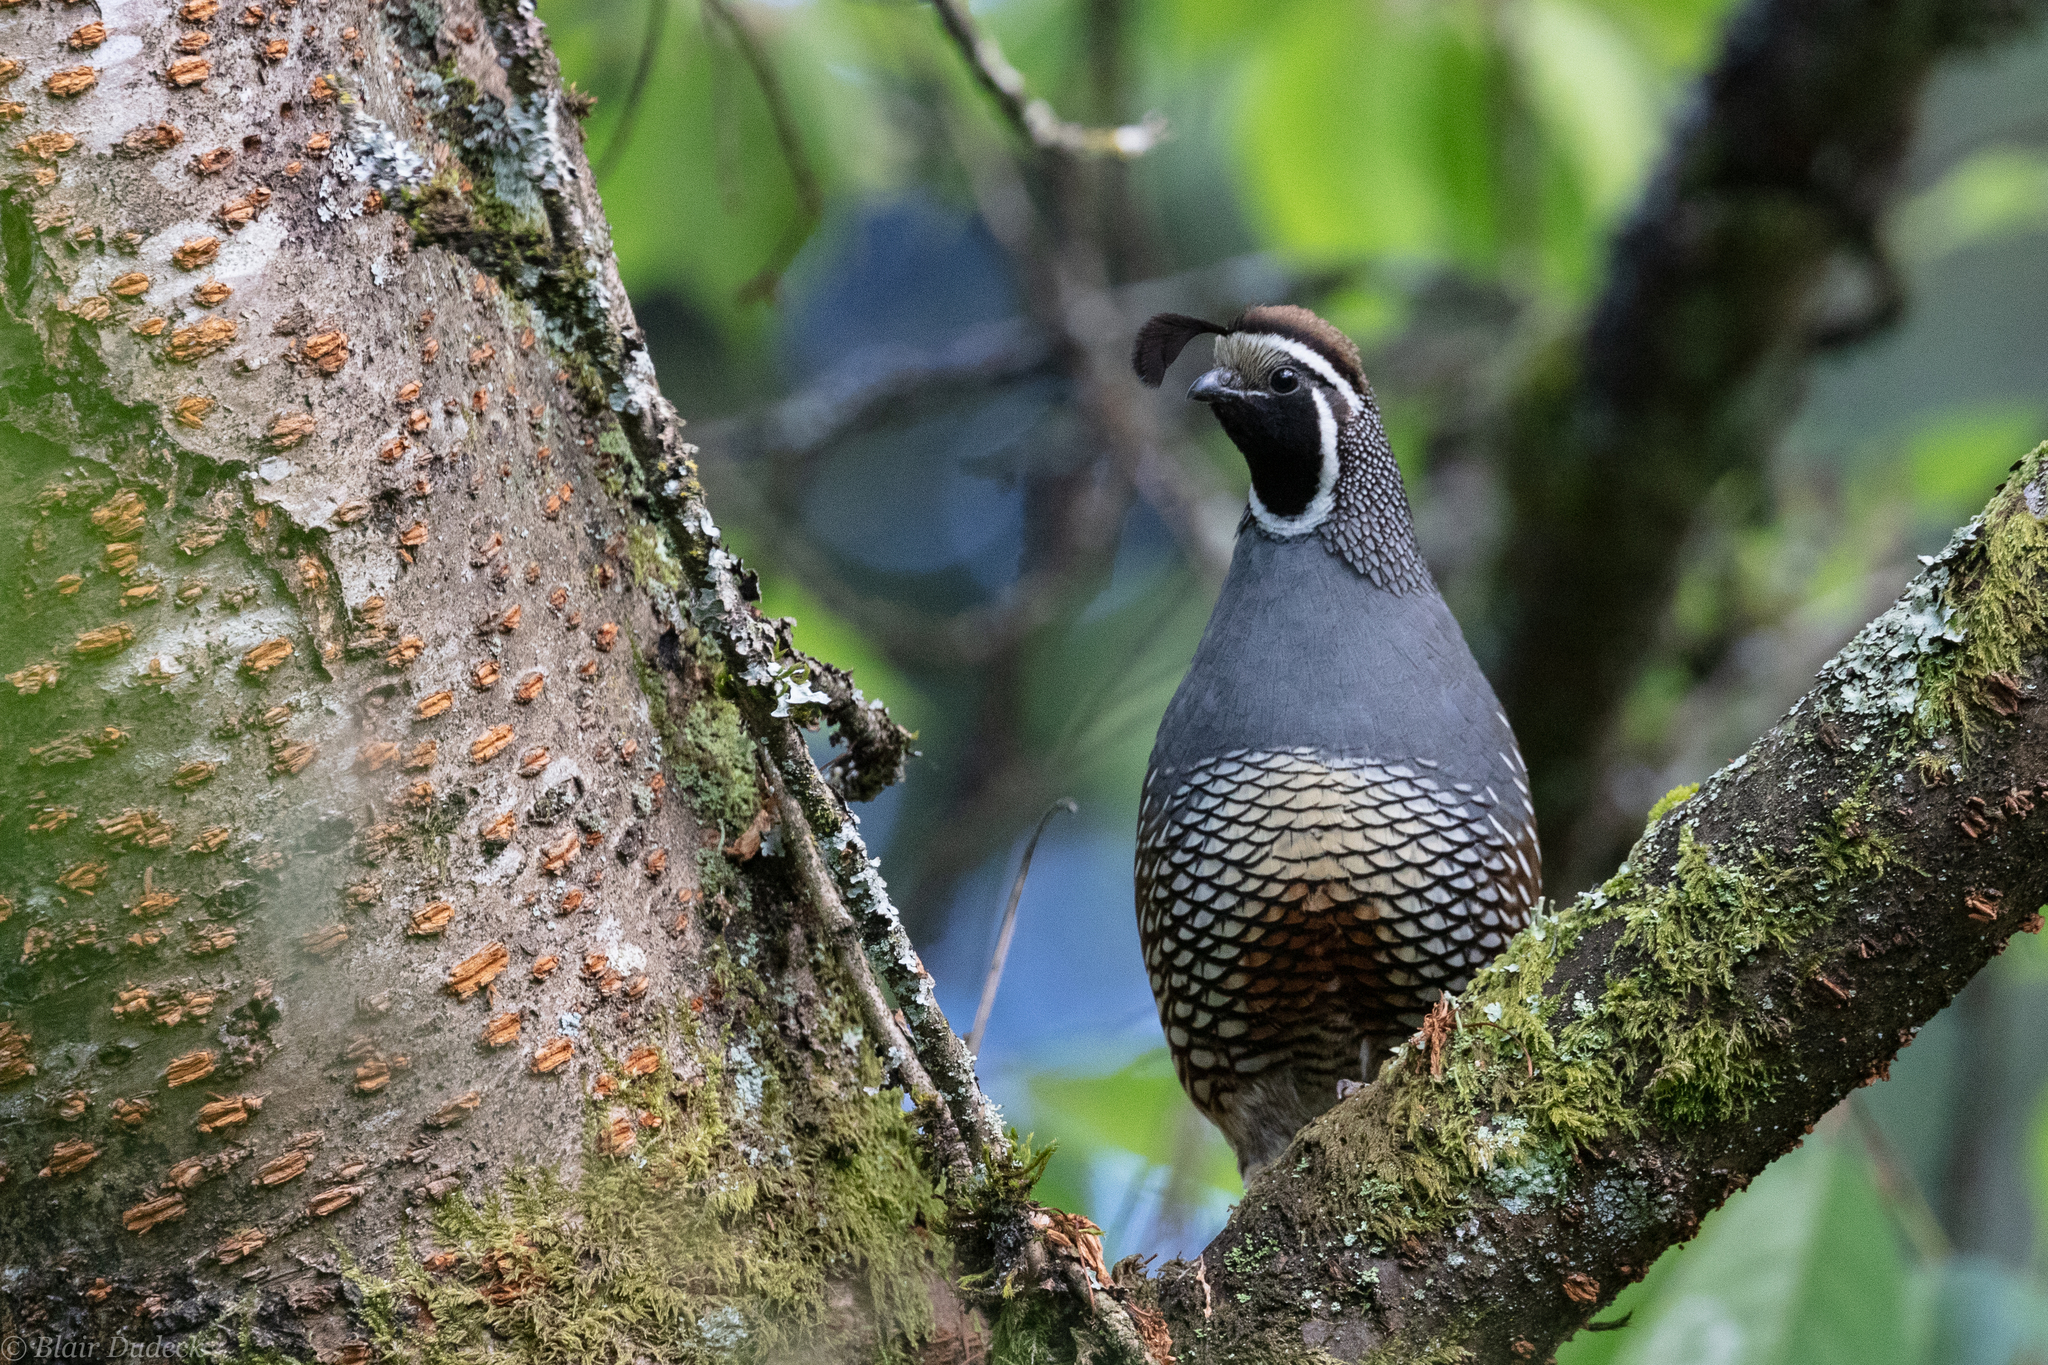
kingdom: Animalia
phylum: Chordata
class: Aves
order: Galliformes
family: Odontophoridae
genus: Callipepla
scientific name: Callipepla californica
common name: California quail
